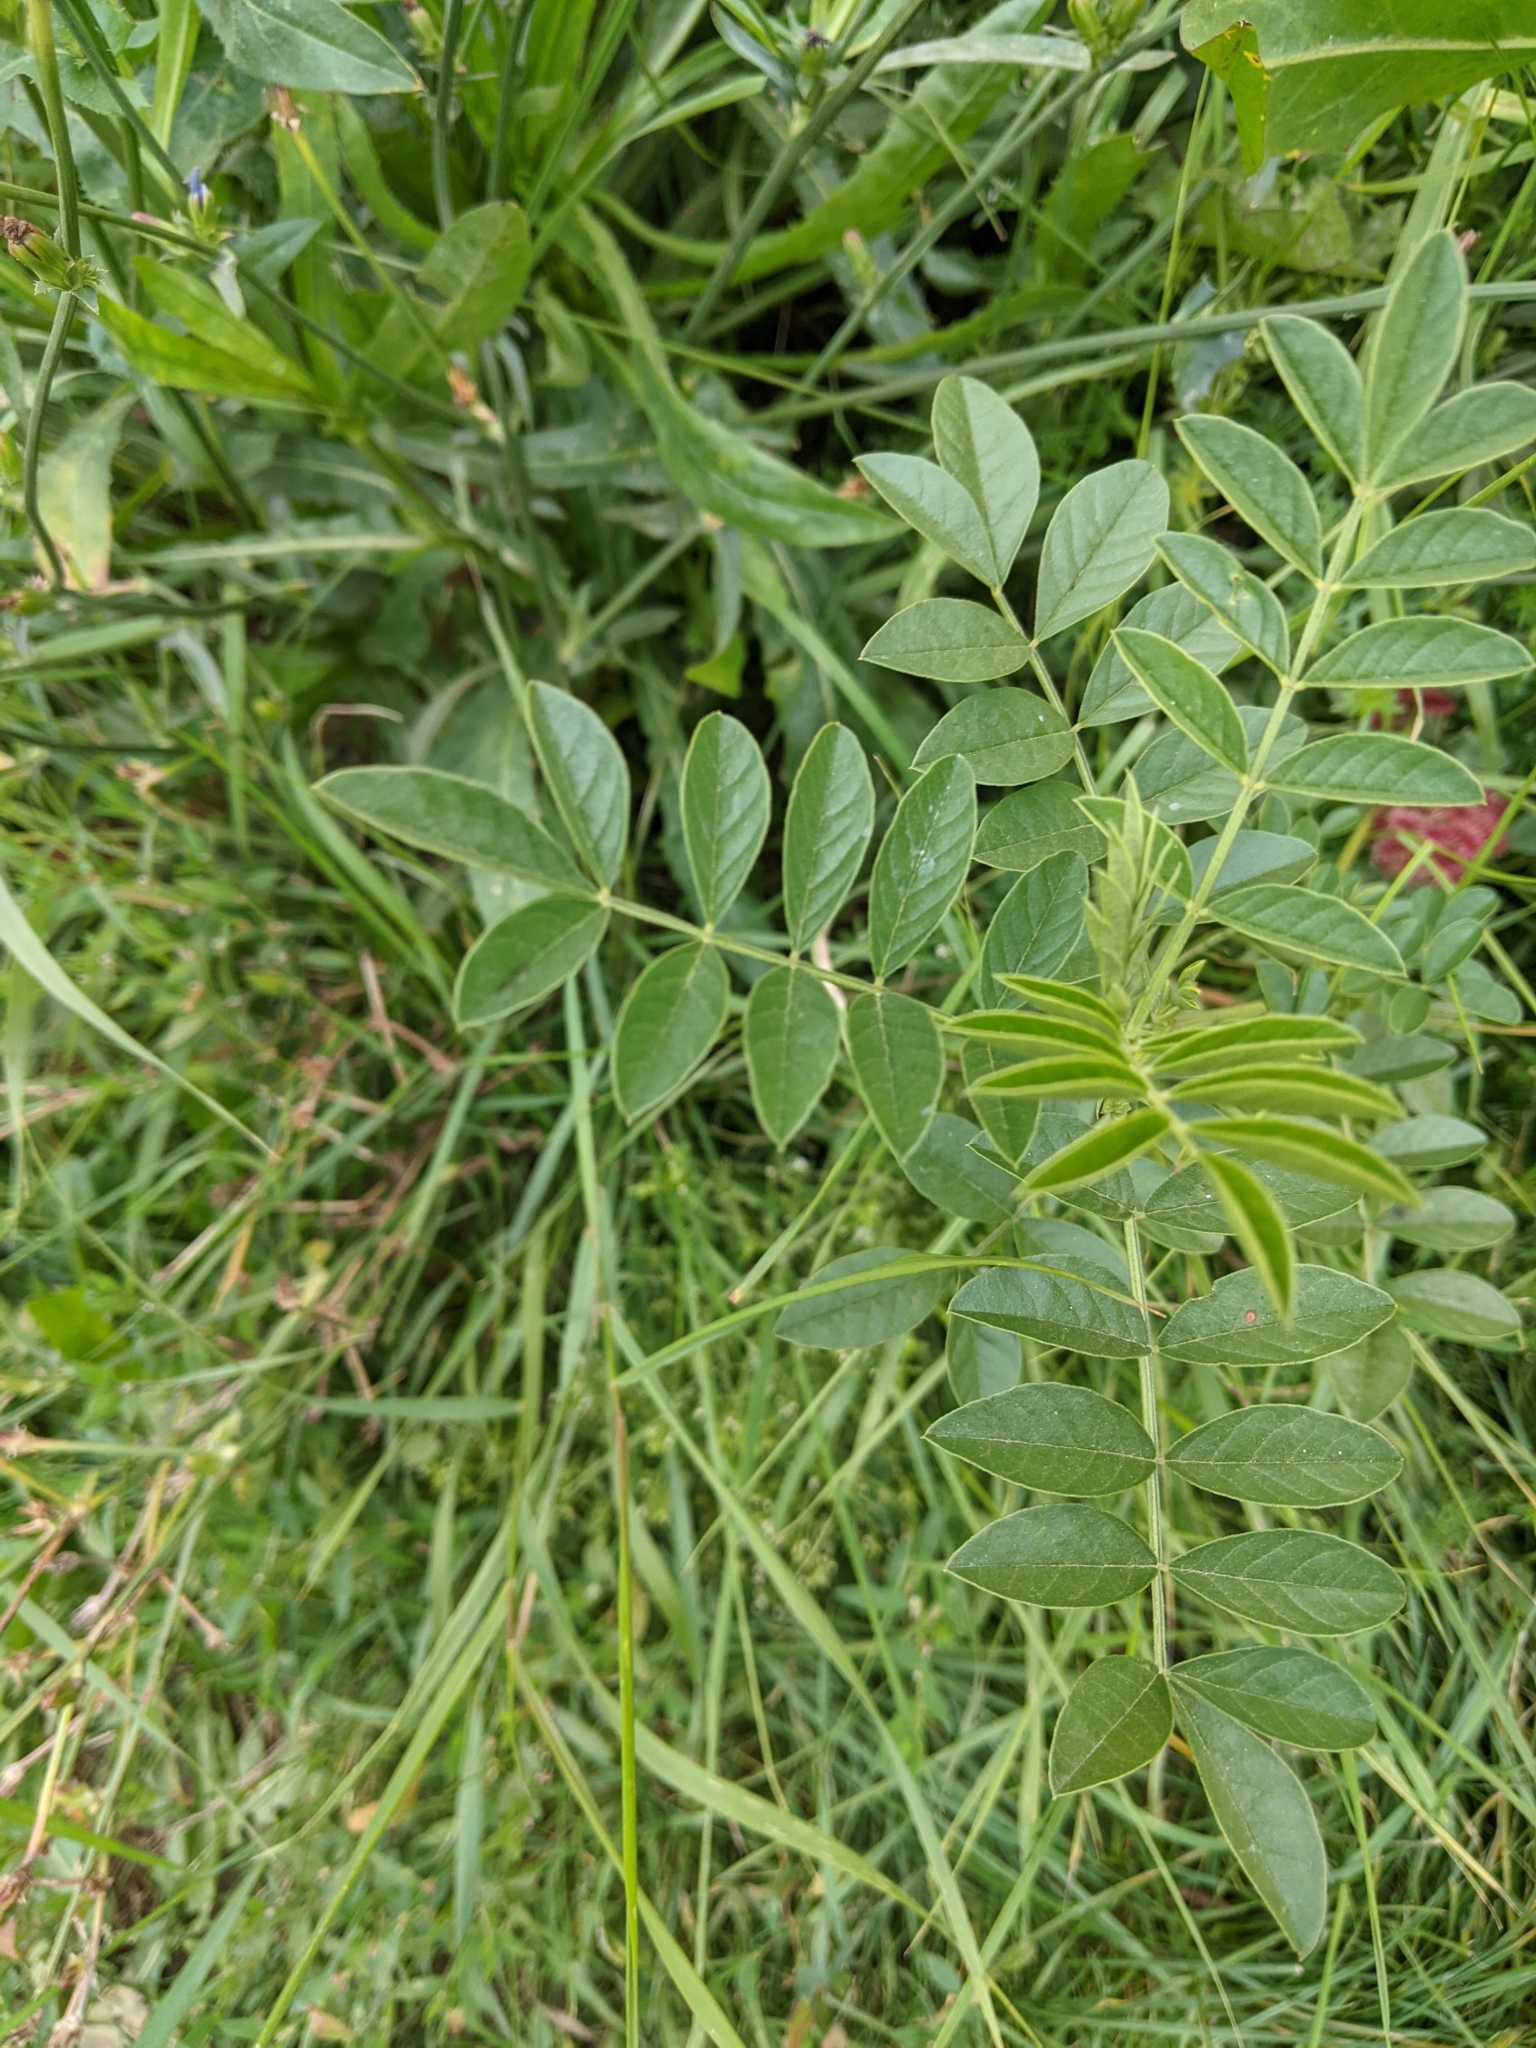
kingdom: Plantae
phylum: Tracheophyta
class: Magnoliopsida
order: Fabales
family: Fabaceae
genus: Glycyrrhiza
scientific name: Glycyrrhiza echinata
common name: German liquorice
